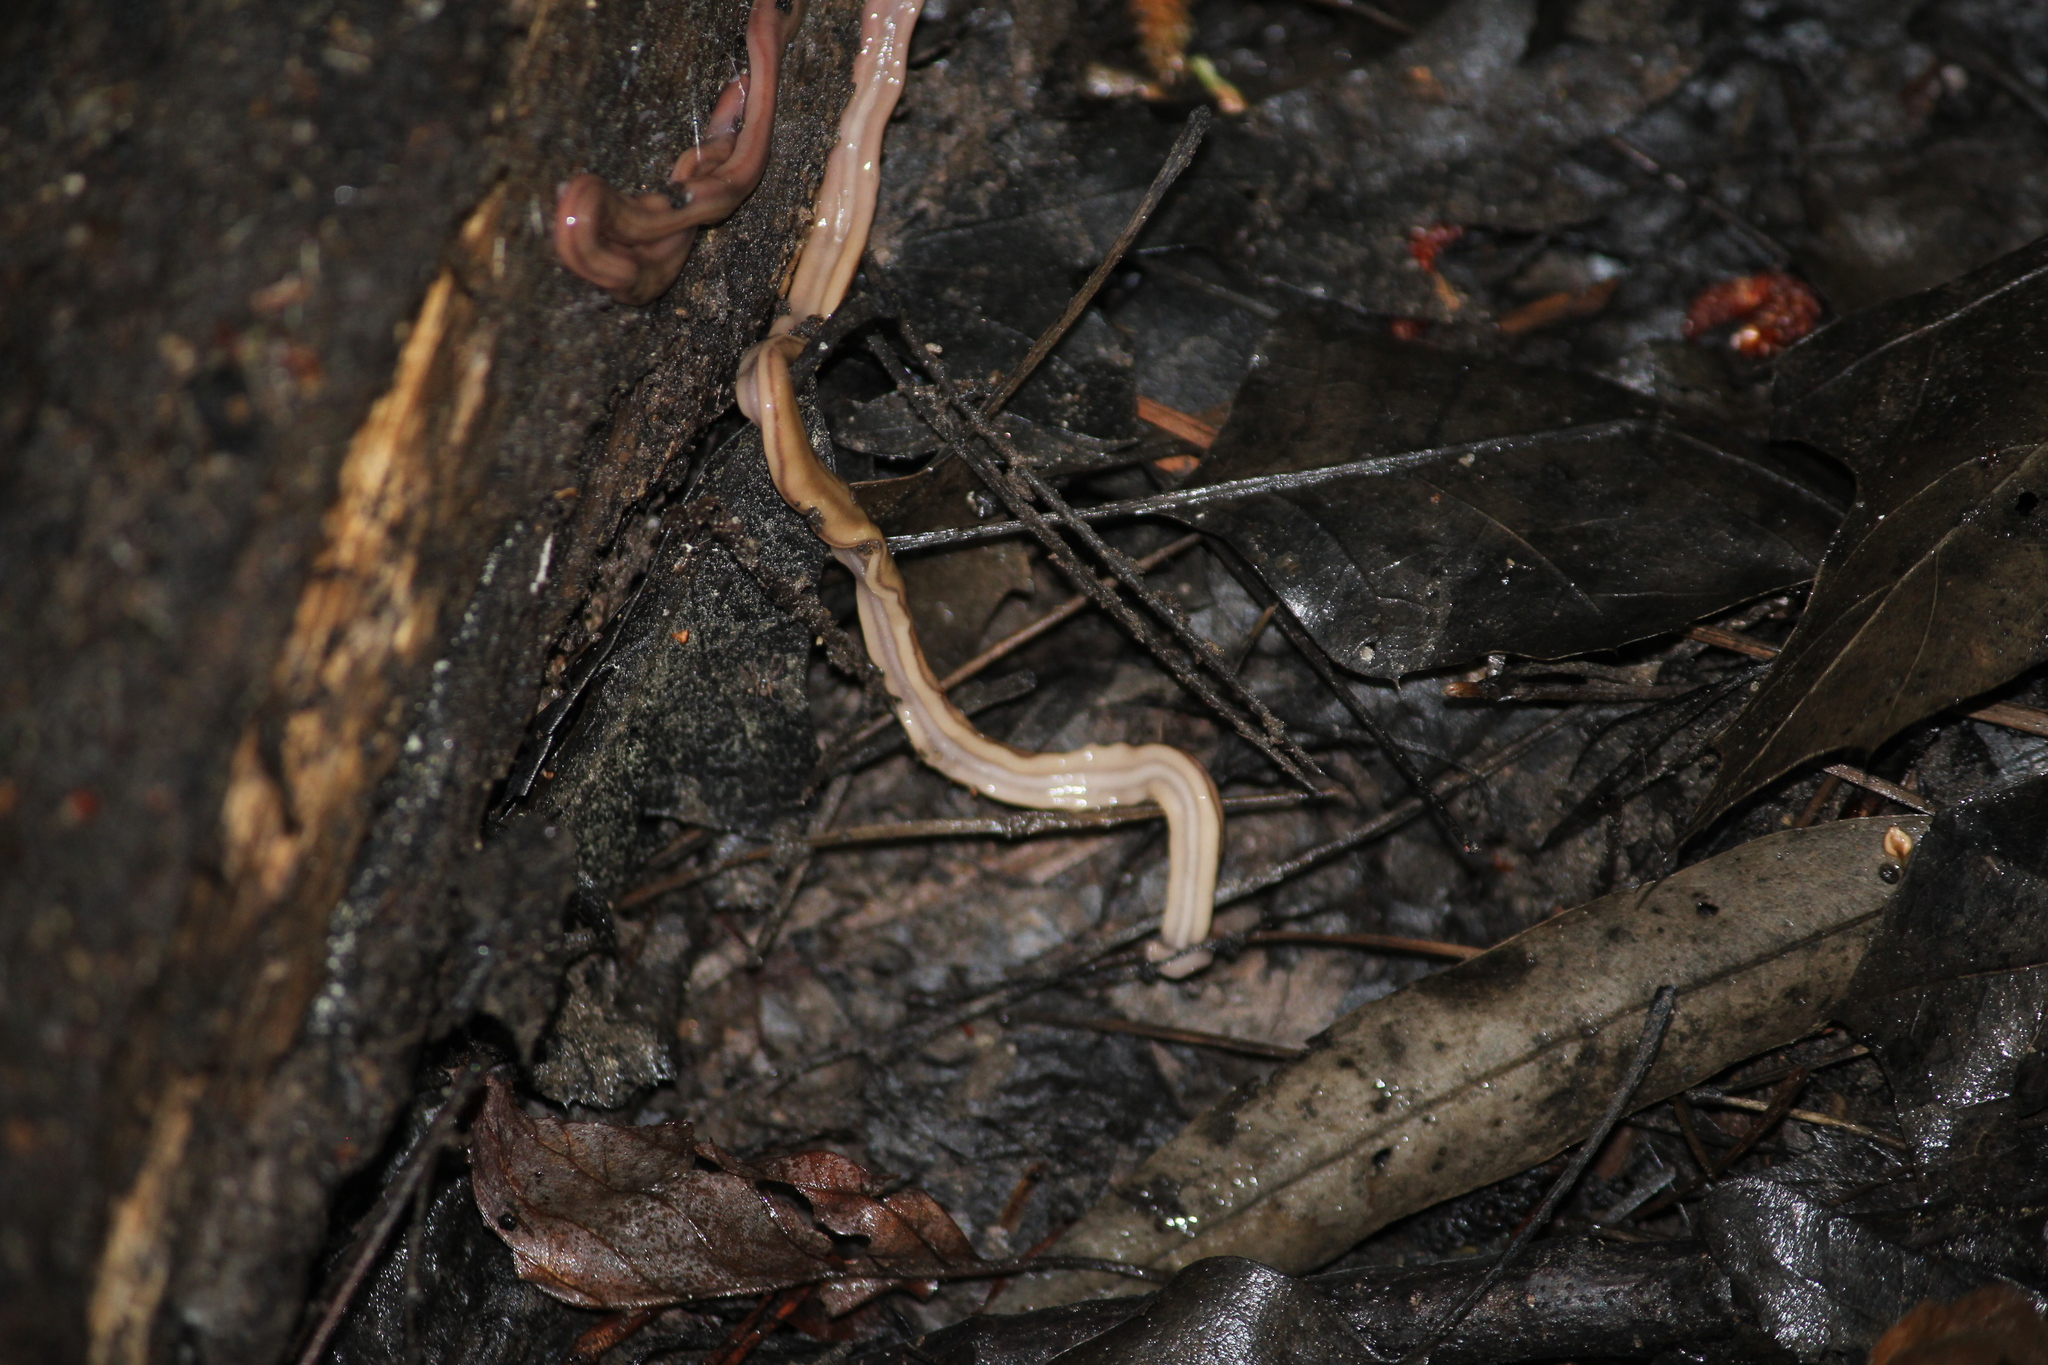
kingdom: Animalia
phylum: Platyhelminthes
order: Tricladida
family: Geoplanidae
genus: Bipalium
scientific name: Bipalium kewense
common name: Hammerhead flatworm
